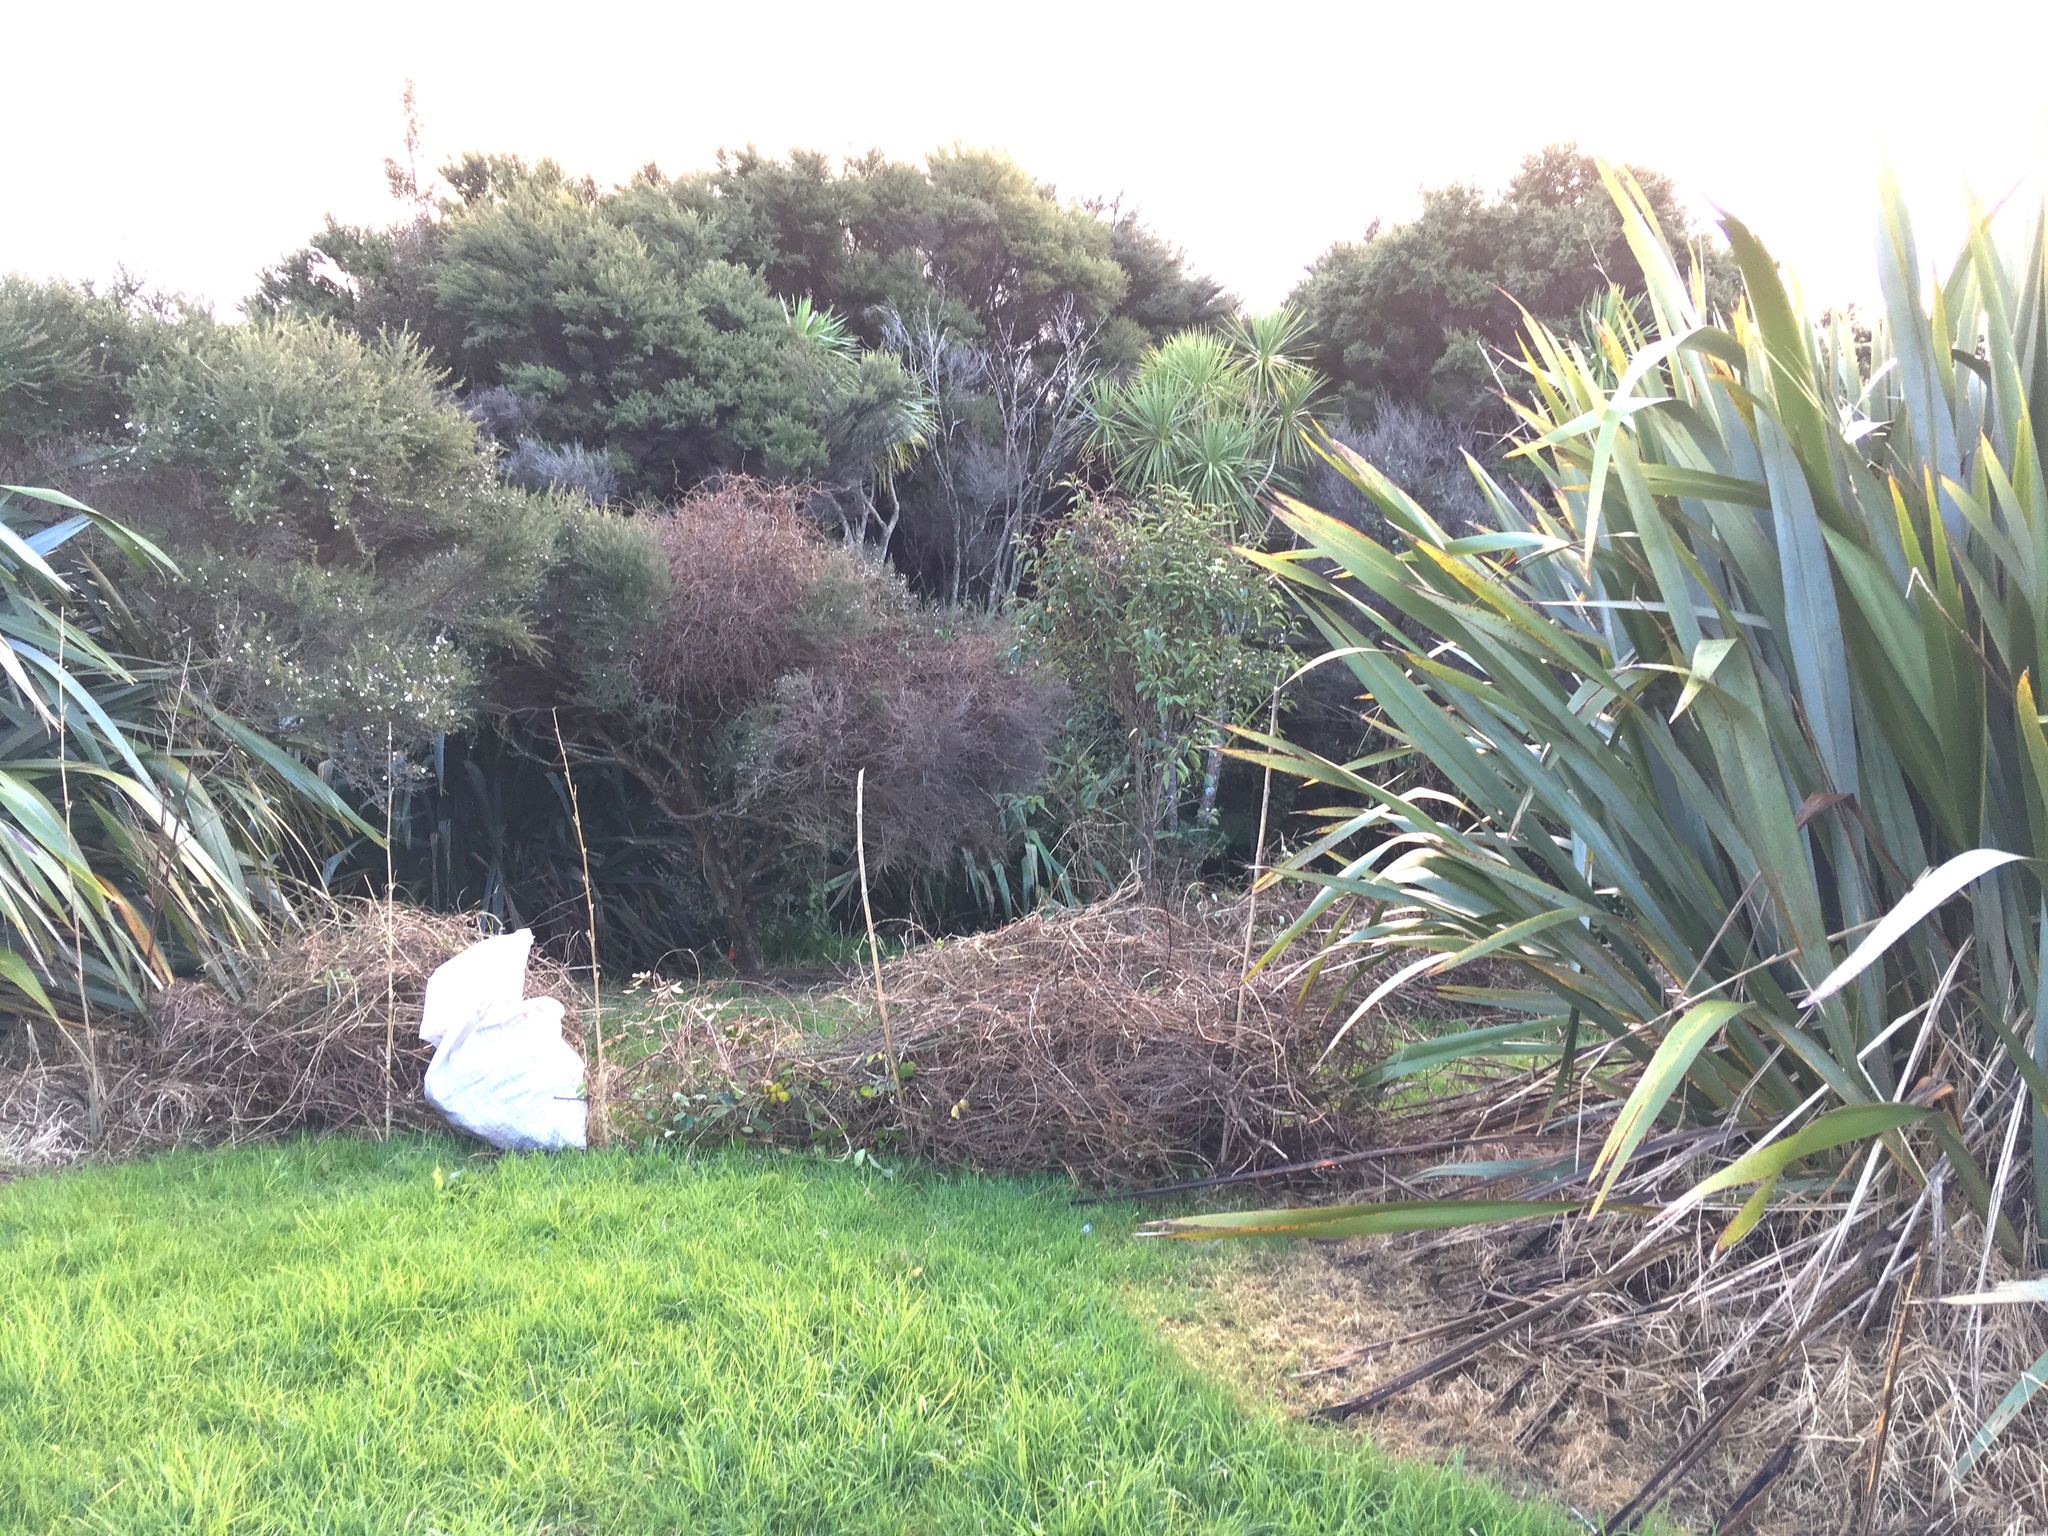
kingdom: Plantae
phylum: Tracheophyta
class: Magnoliopsida
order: Myrtales
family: Myrtaceae
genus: Leptospermum
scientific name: Leptospermum scoparium
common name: Broom tea-tree
